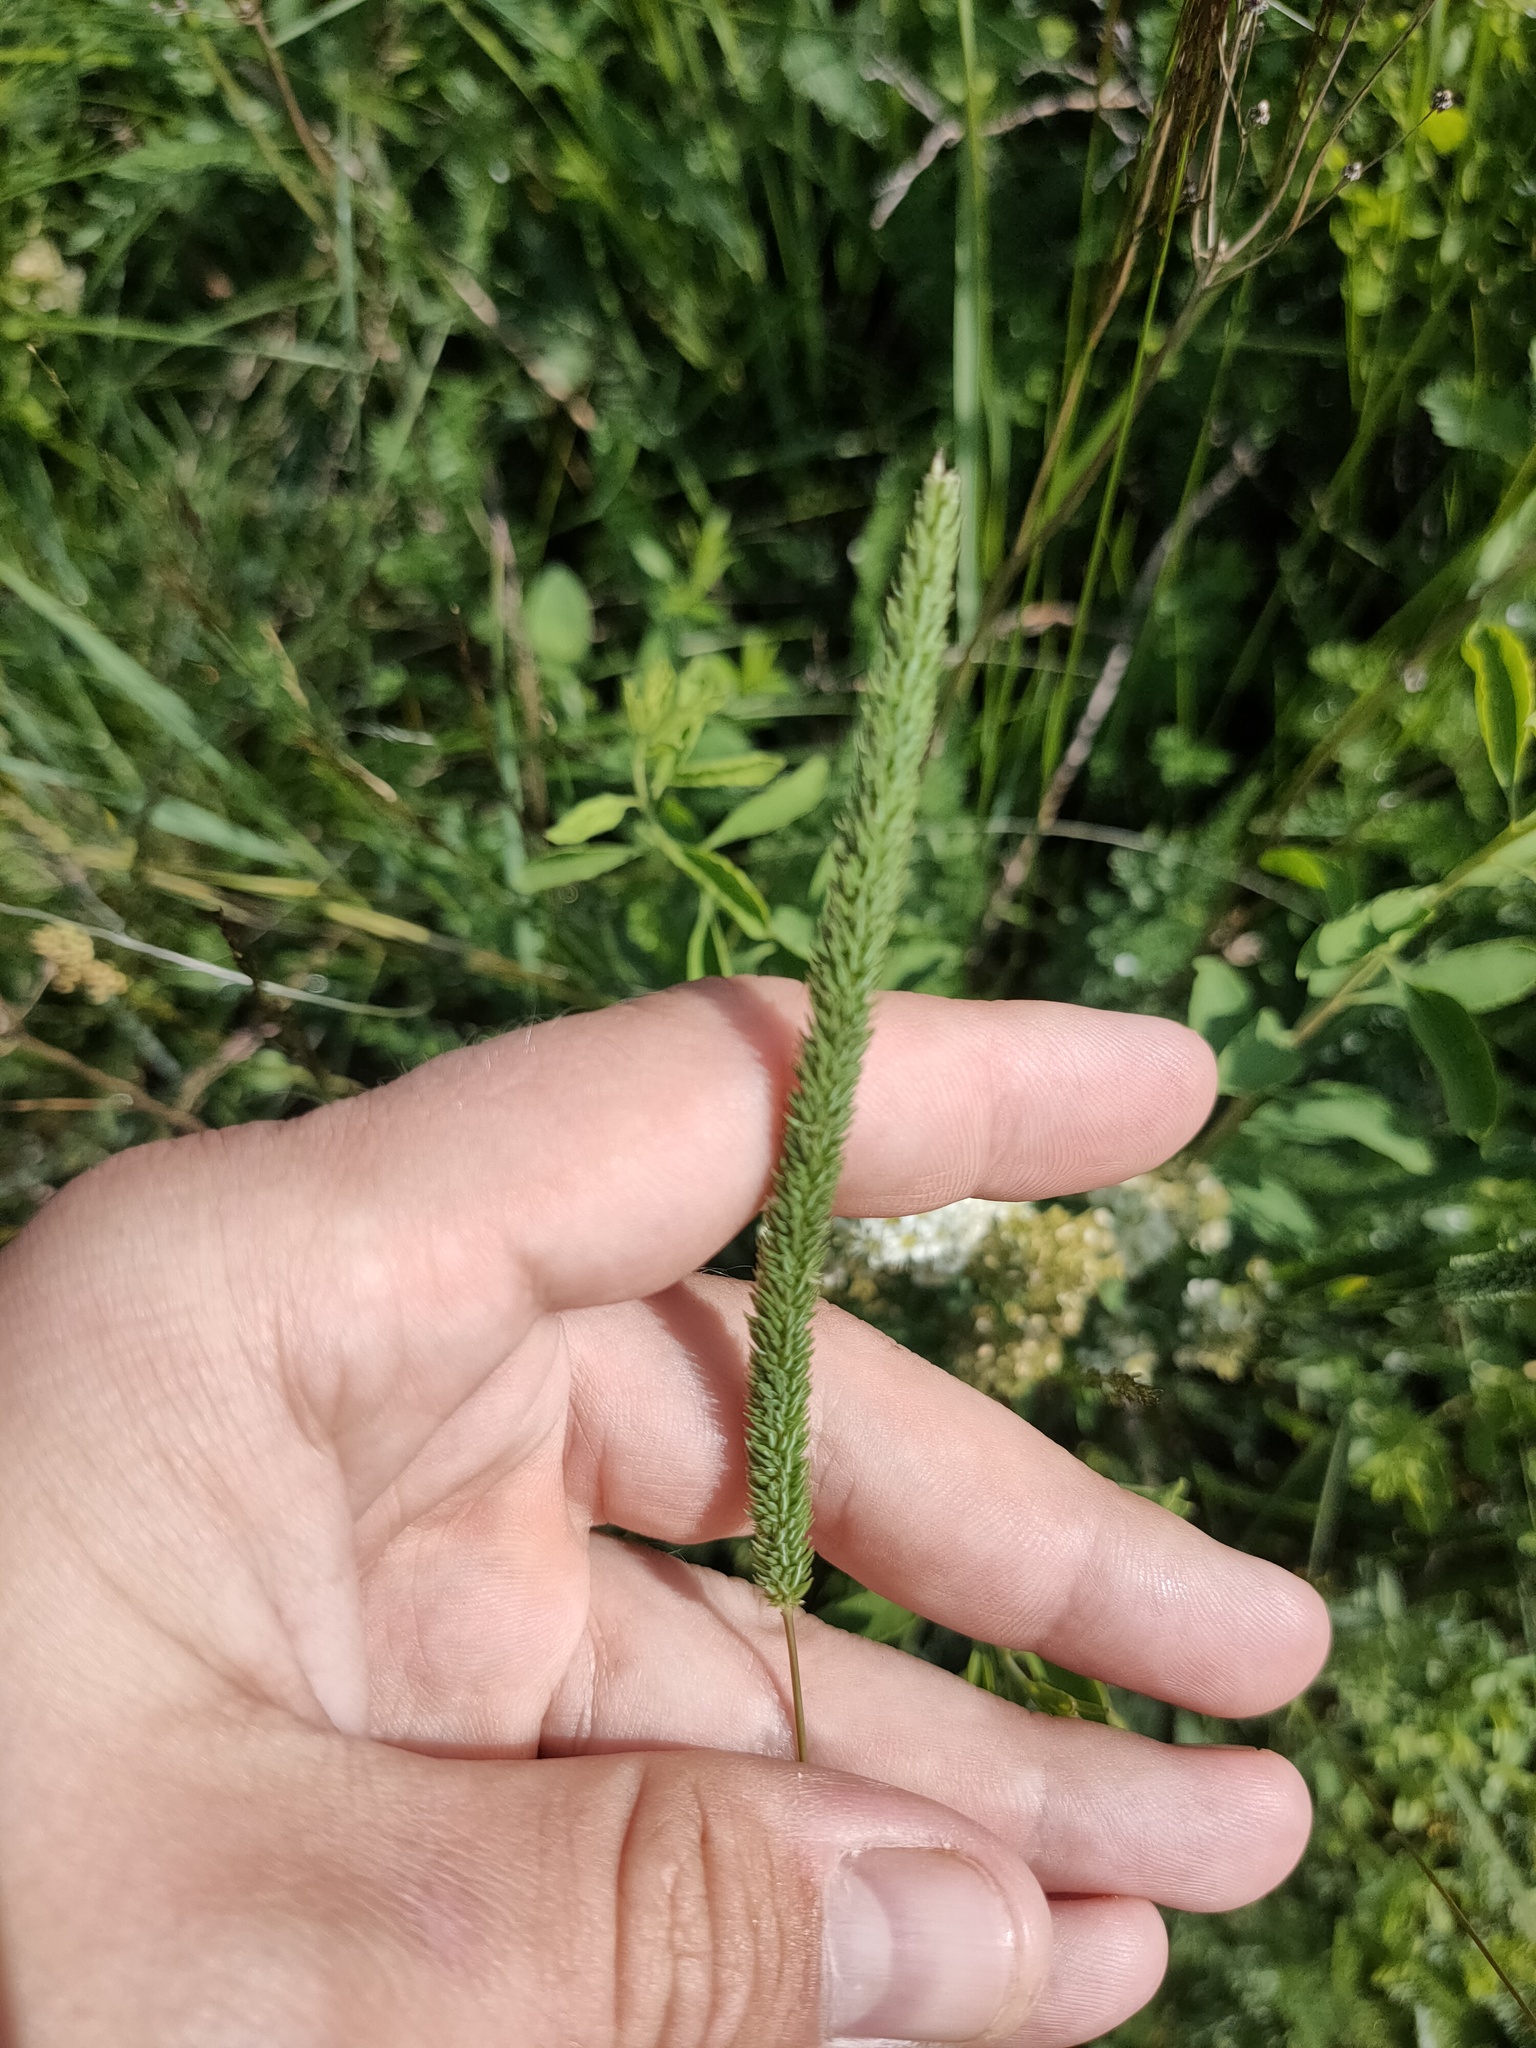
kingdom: Plantae
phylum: Tracheophyta
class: Liliopsida
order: Poales
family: Poaceae
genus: Phleum
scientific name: Phleum phleoides
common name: Purple-stem cat's-tail
